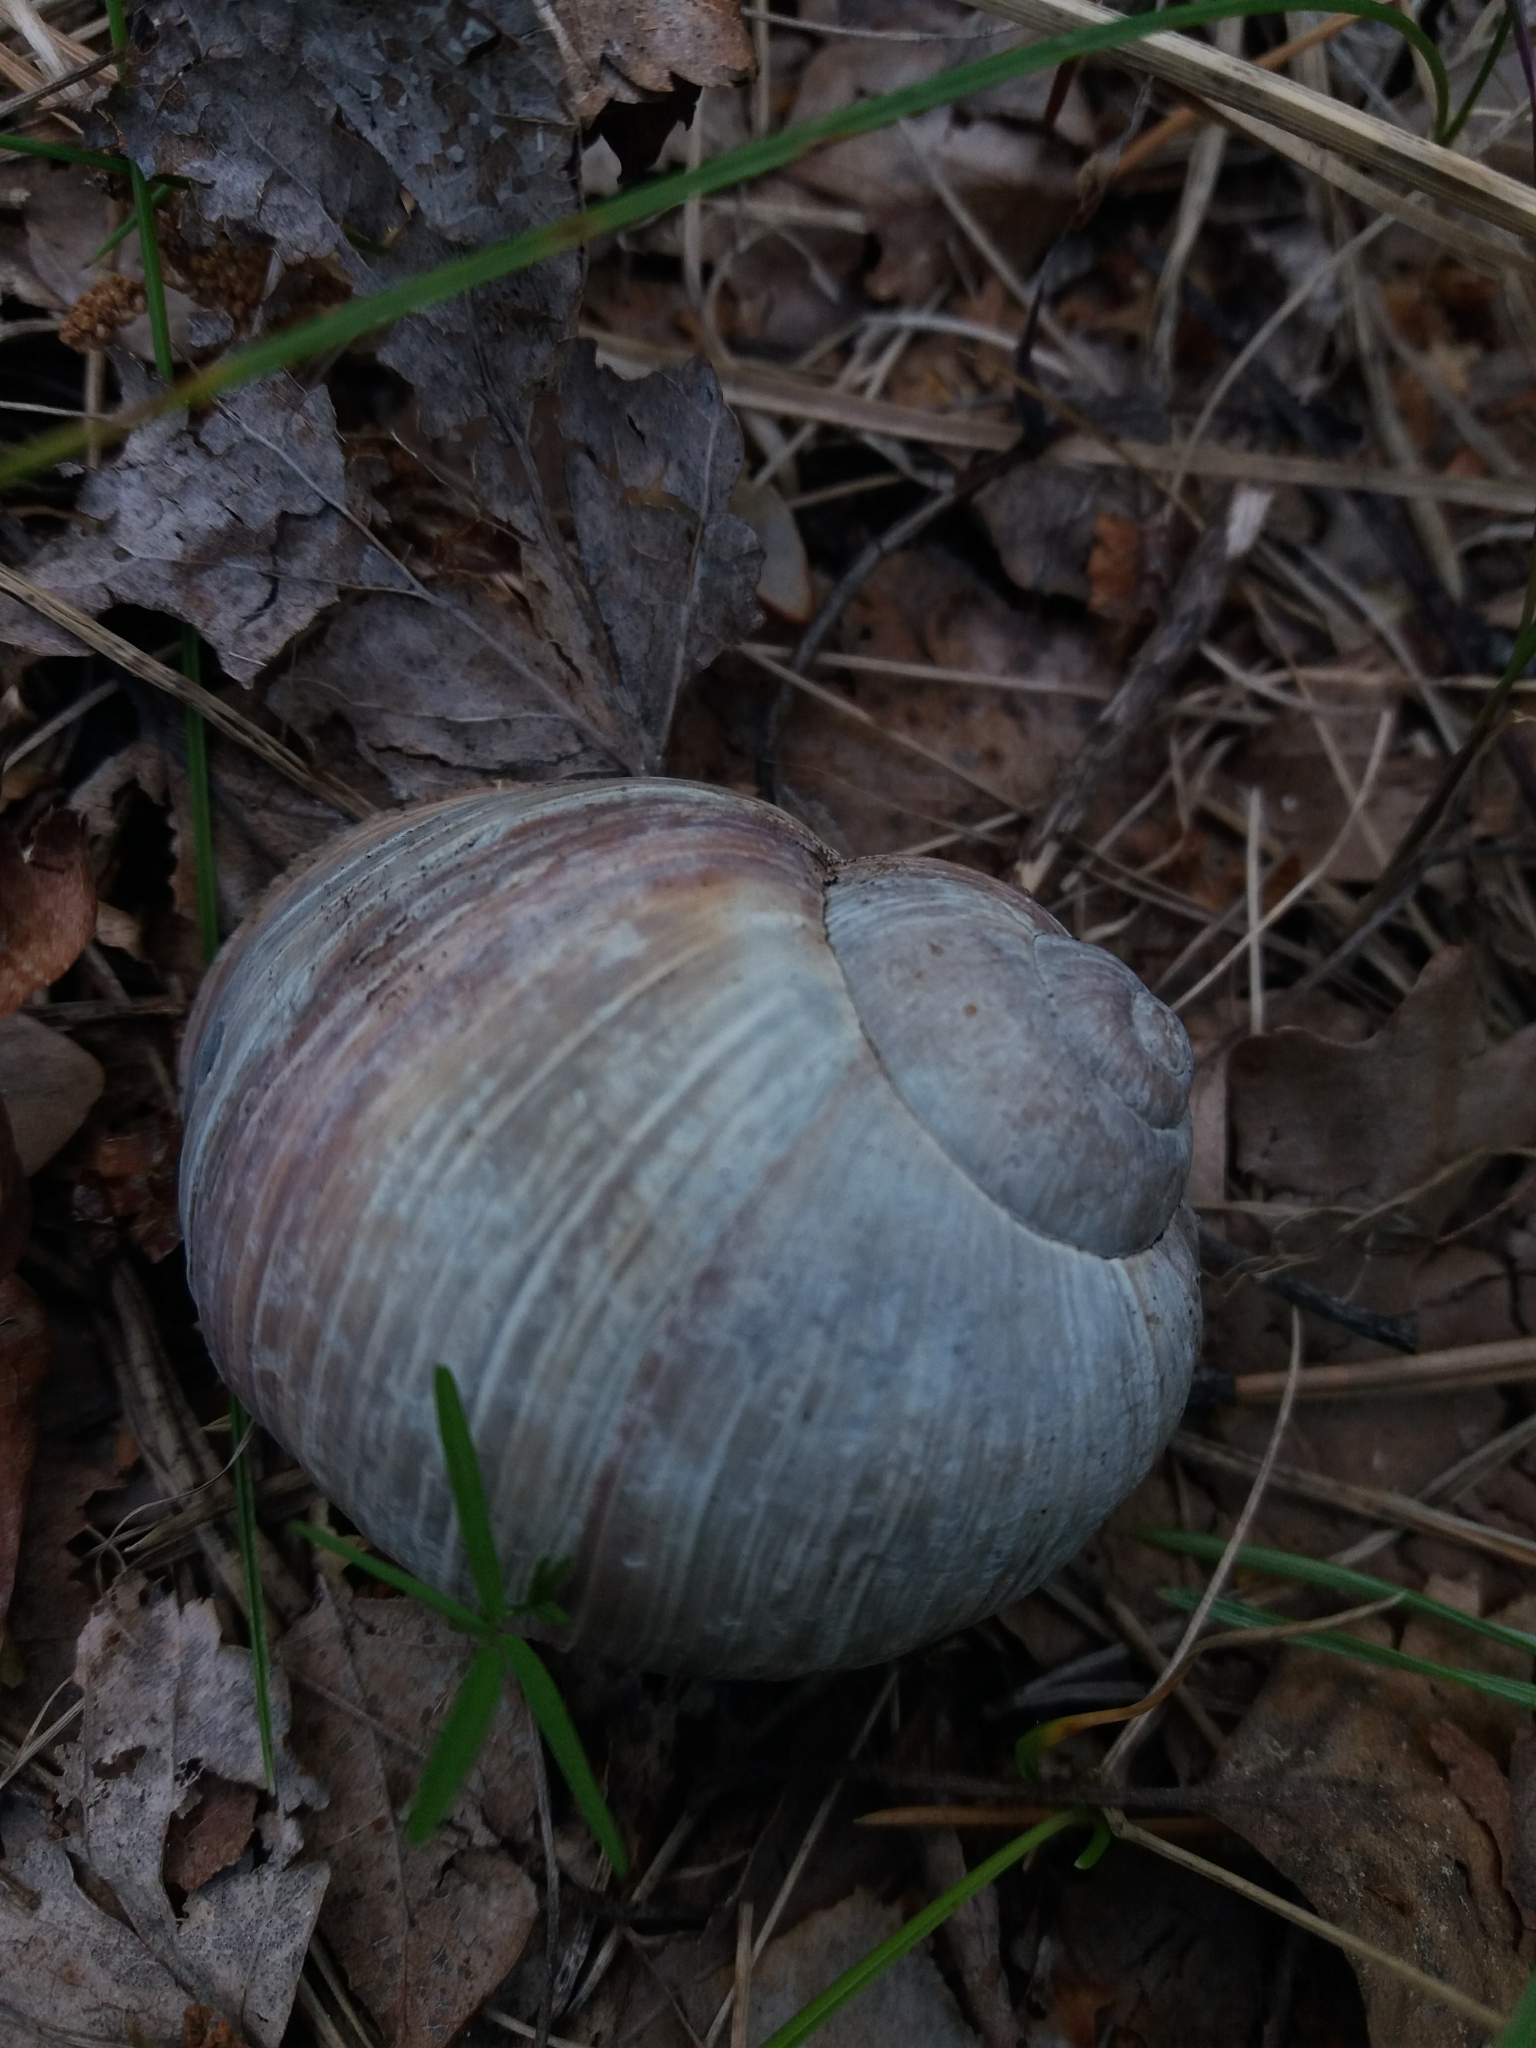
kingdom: Animalia
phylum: Mollusca
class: Gastropoda
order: Stylommatophora
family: Helicidae
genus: Helix
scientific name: Helix pomatia
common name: Roman snail
